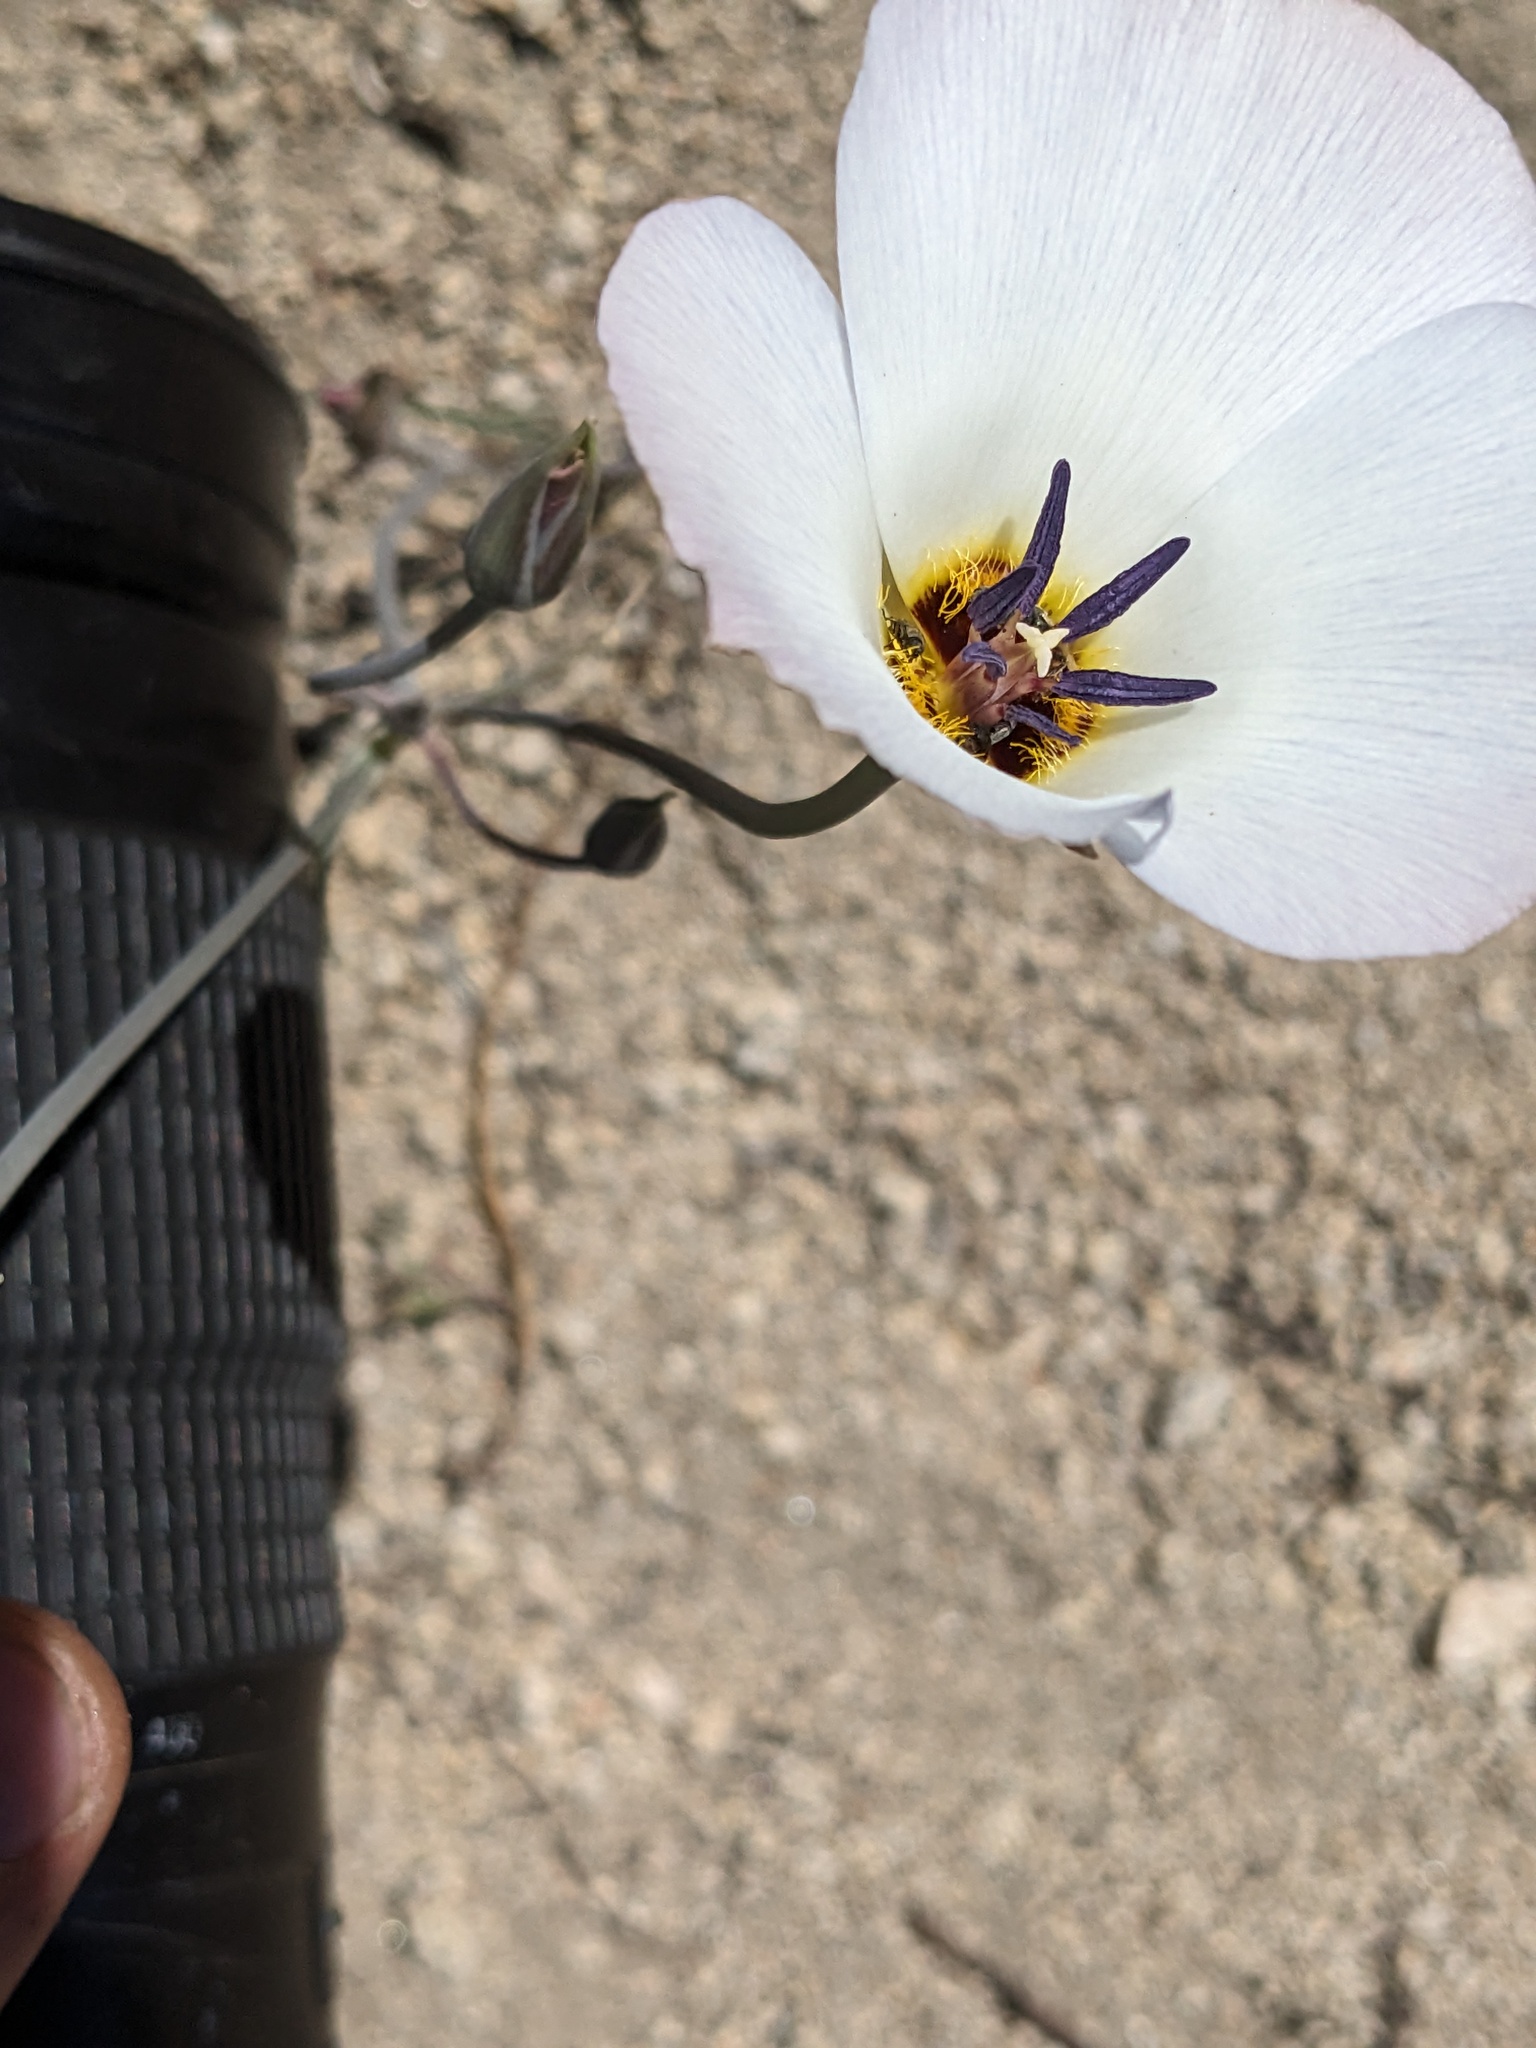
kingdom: Plantae
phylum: Tracheophyta
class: Liliopsida
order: Liliales
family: Liliaceae
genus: Calochortus
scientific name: Calochortus invenustus
